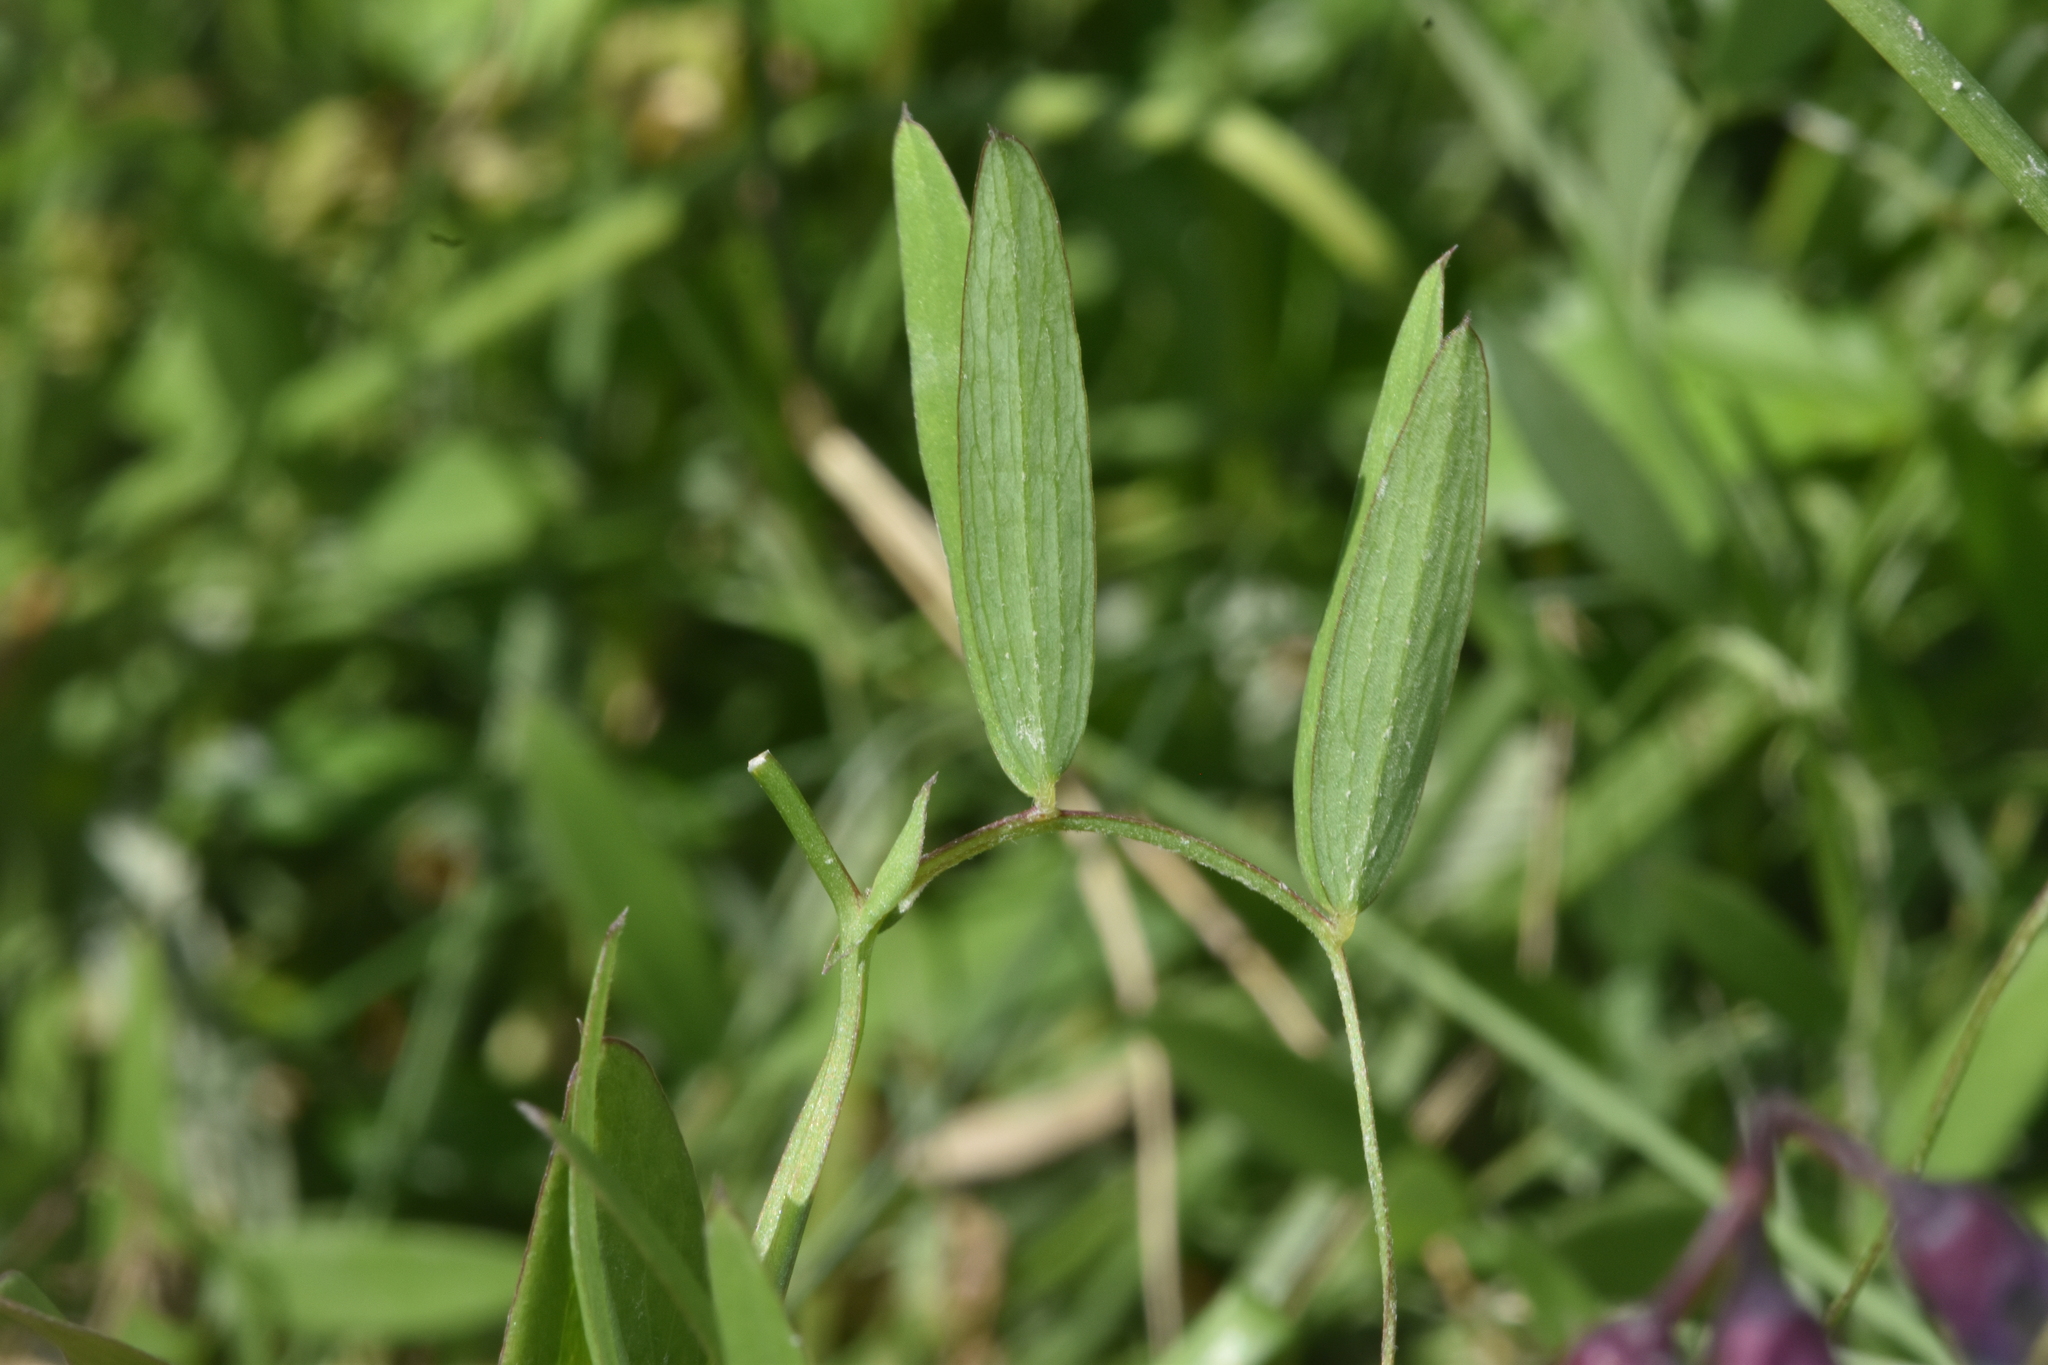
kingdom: Plantae
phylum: Tracheophyta
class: Magnoliopsida
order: Fabales
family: Fabaceae
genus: Lathyrus
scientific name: Lathyrus palustris
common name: Marsh pea
